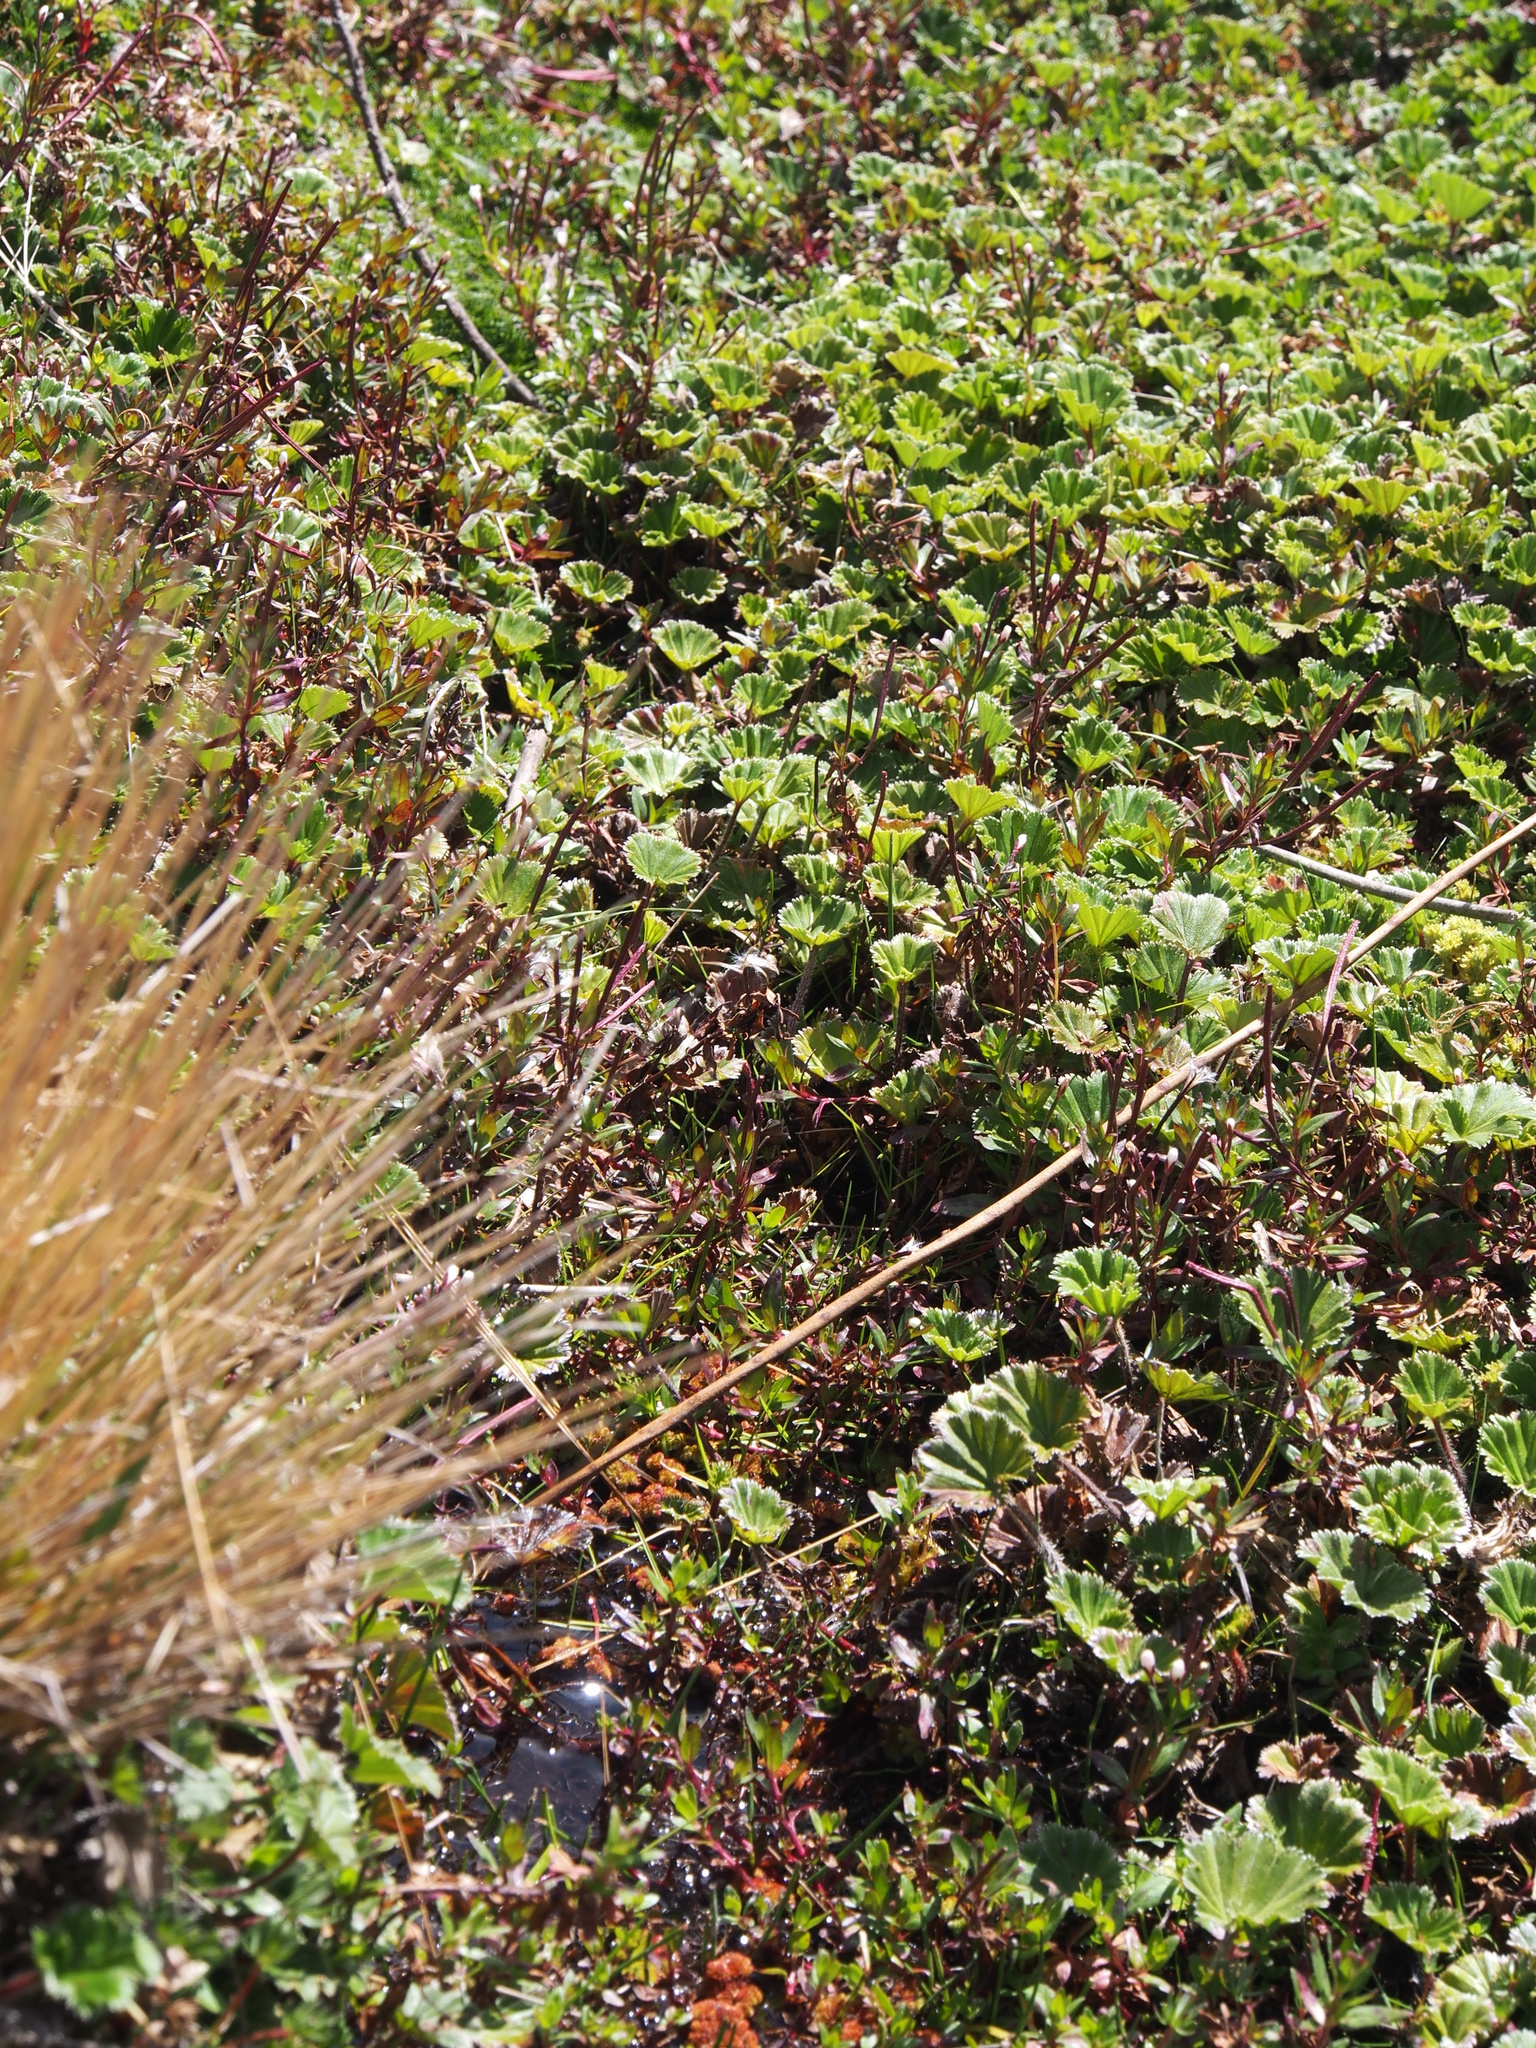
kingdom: Plantae
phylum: Tracheophyta
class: Magnoliopsida
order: Rosales
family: Rosaceae
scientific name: Rosaceae
